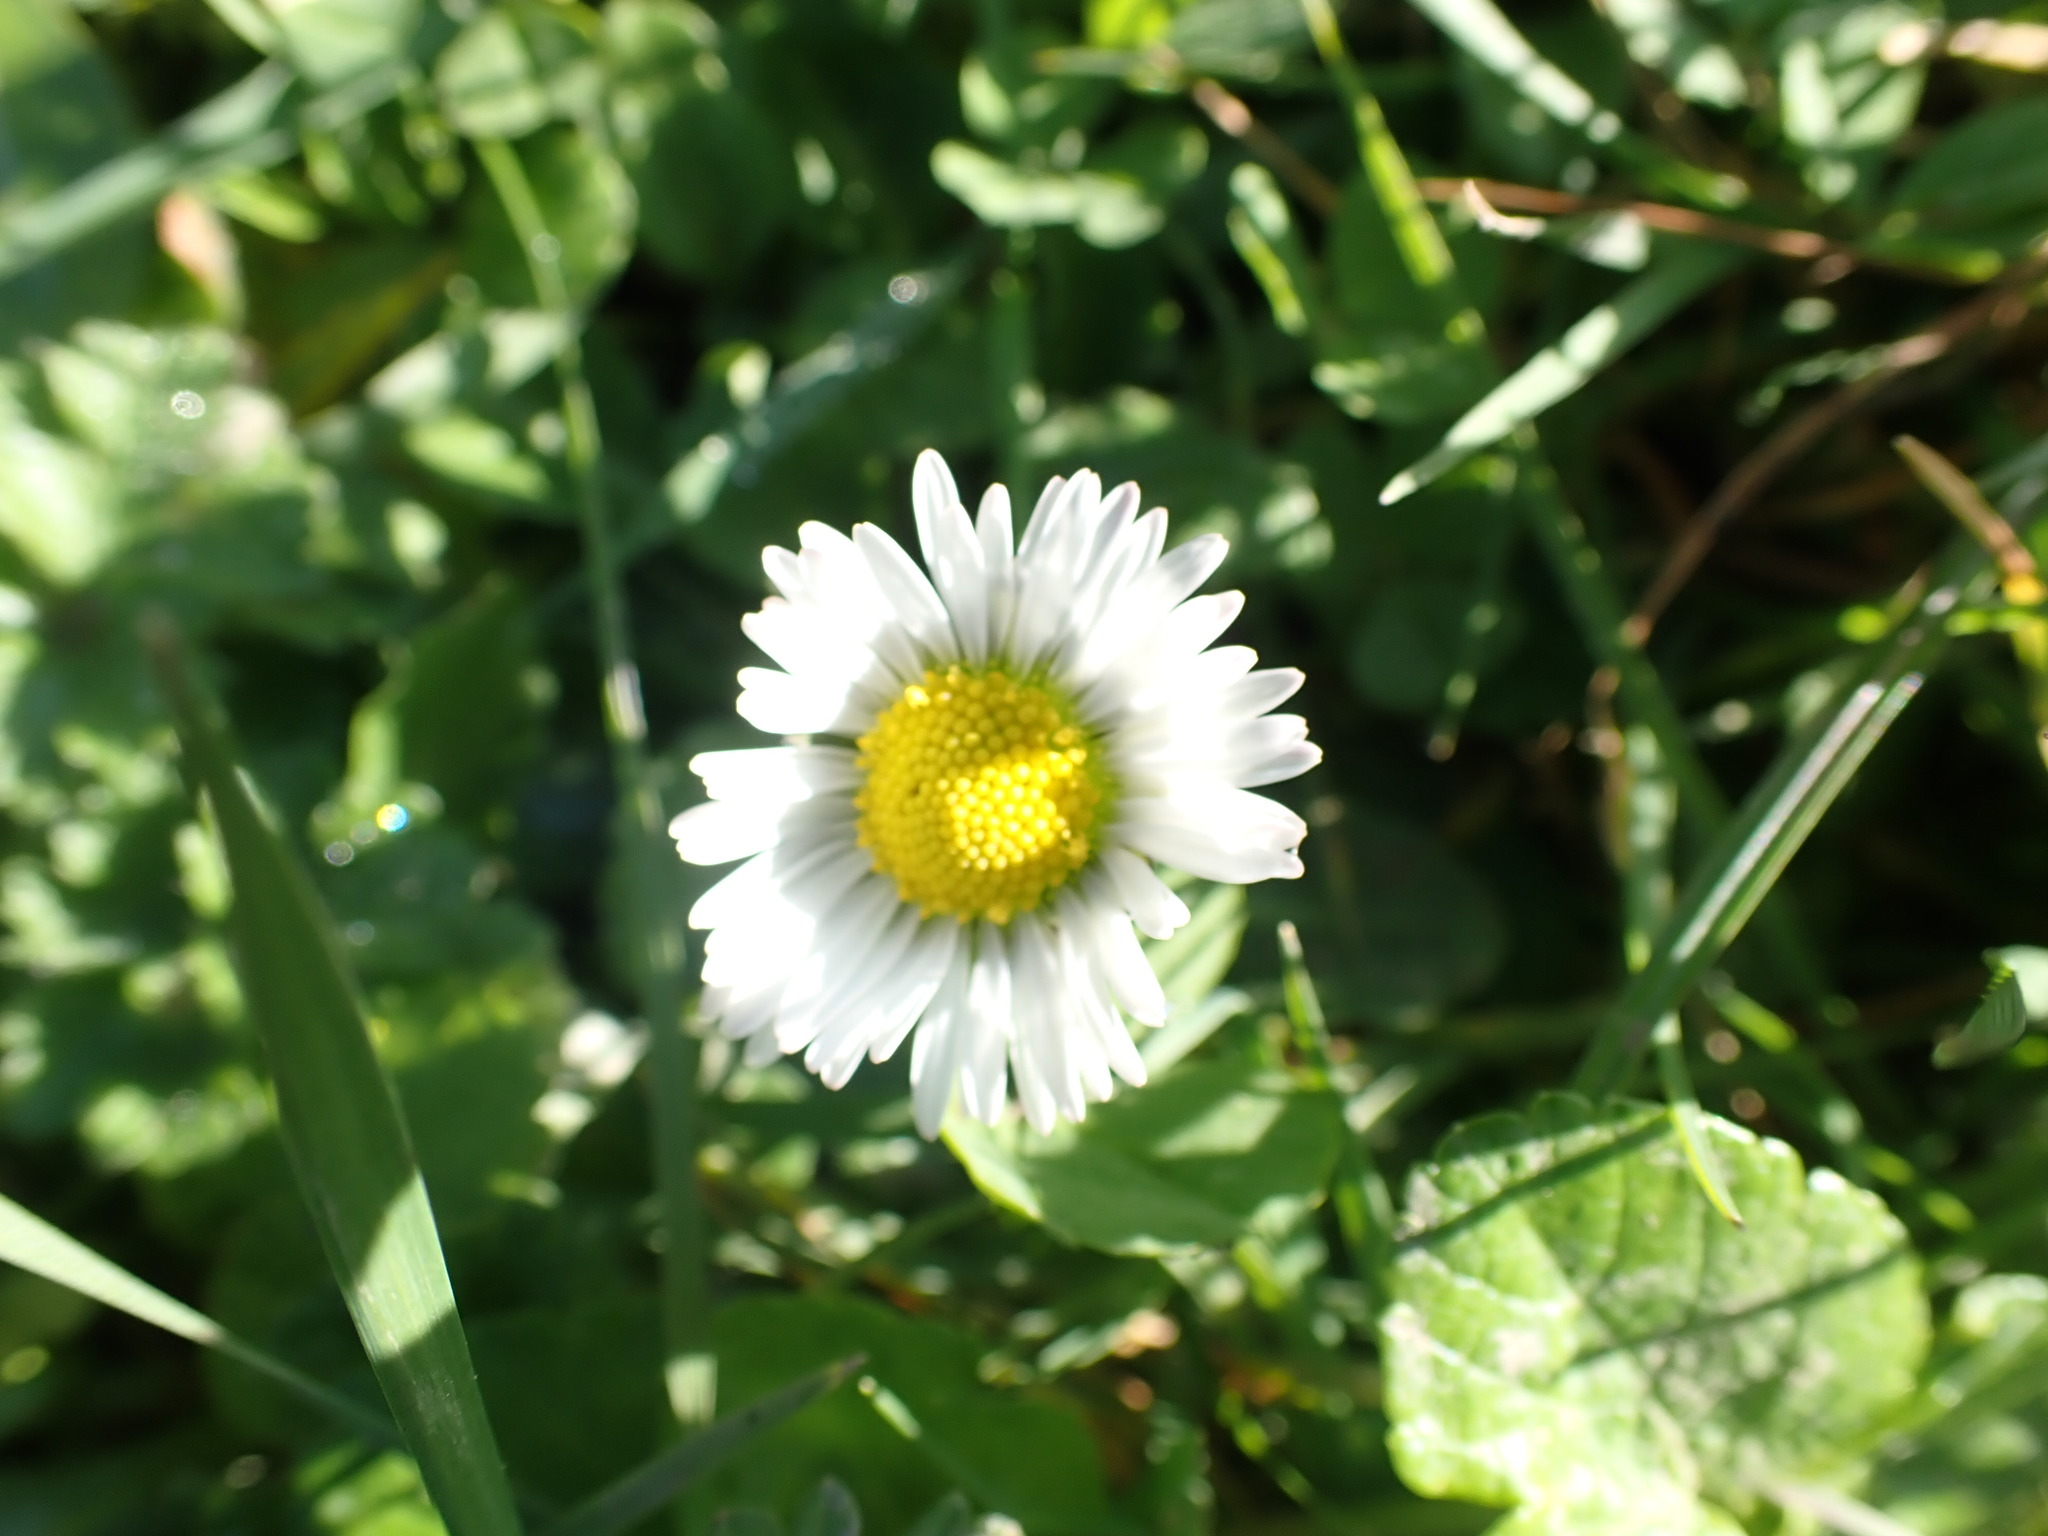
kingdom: Plantae
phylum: Tracheophyta
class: Magnoliopsida
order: Asterales
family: Asteraceae
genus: Bellis
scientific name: Bellis perennis
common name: Lawndaisy
